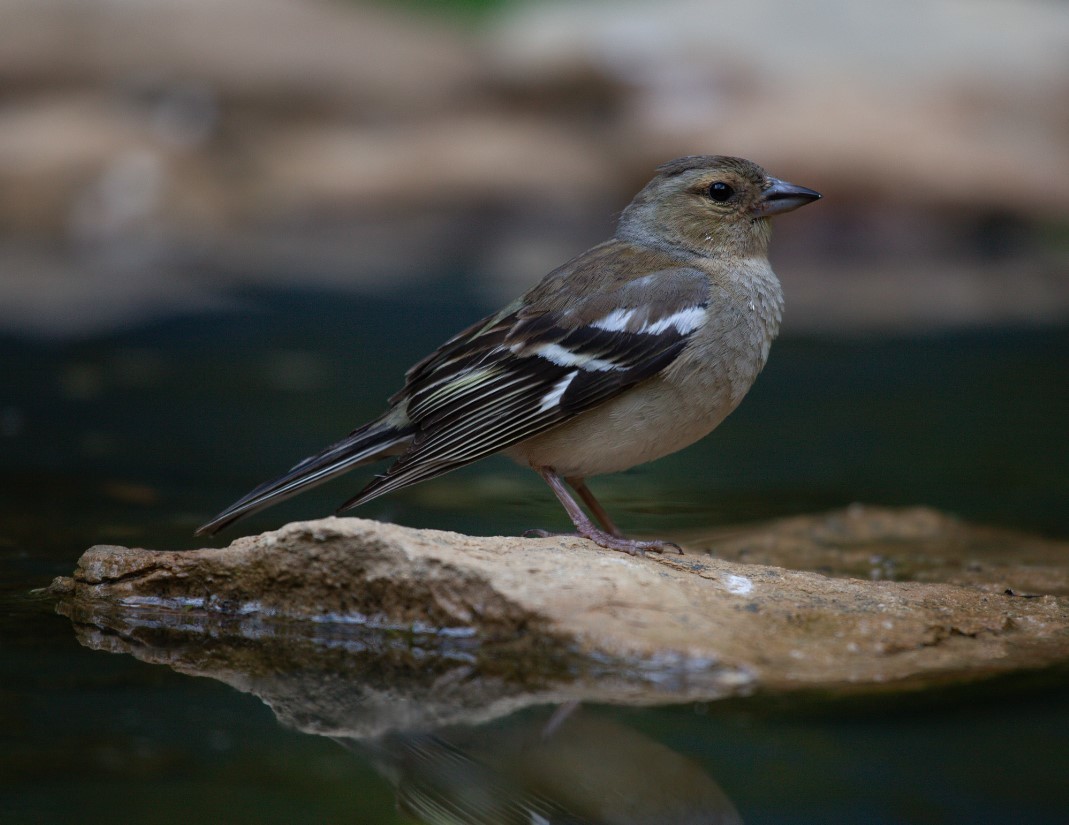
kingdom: Animalia
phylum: Chordata
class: Aves
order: Passeriformes
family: Fringillidae
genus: Fringilla
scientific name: Fringilla coelebs
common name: Common chaffinch
